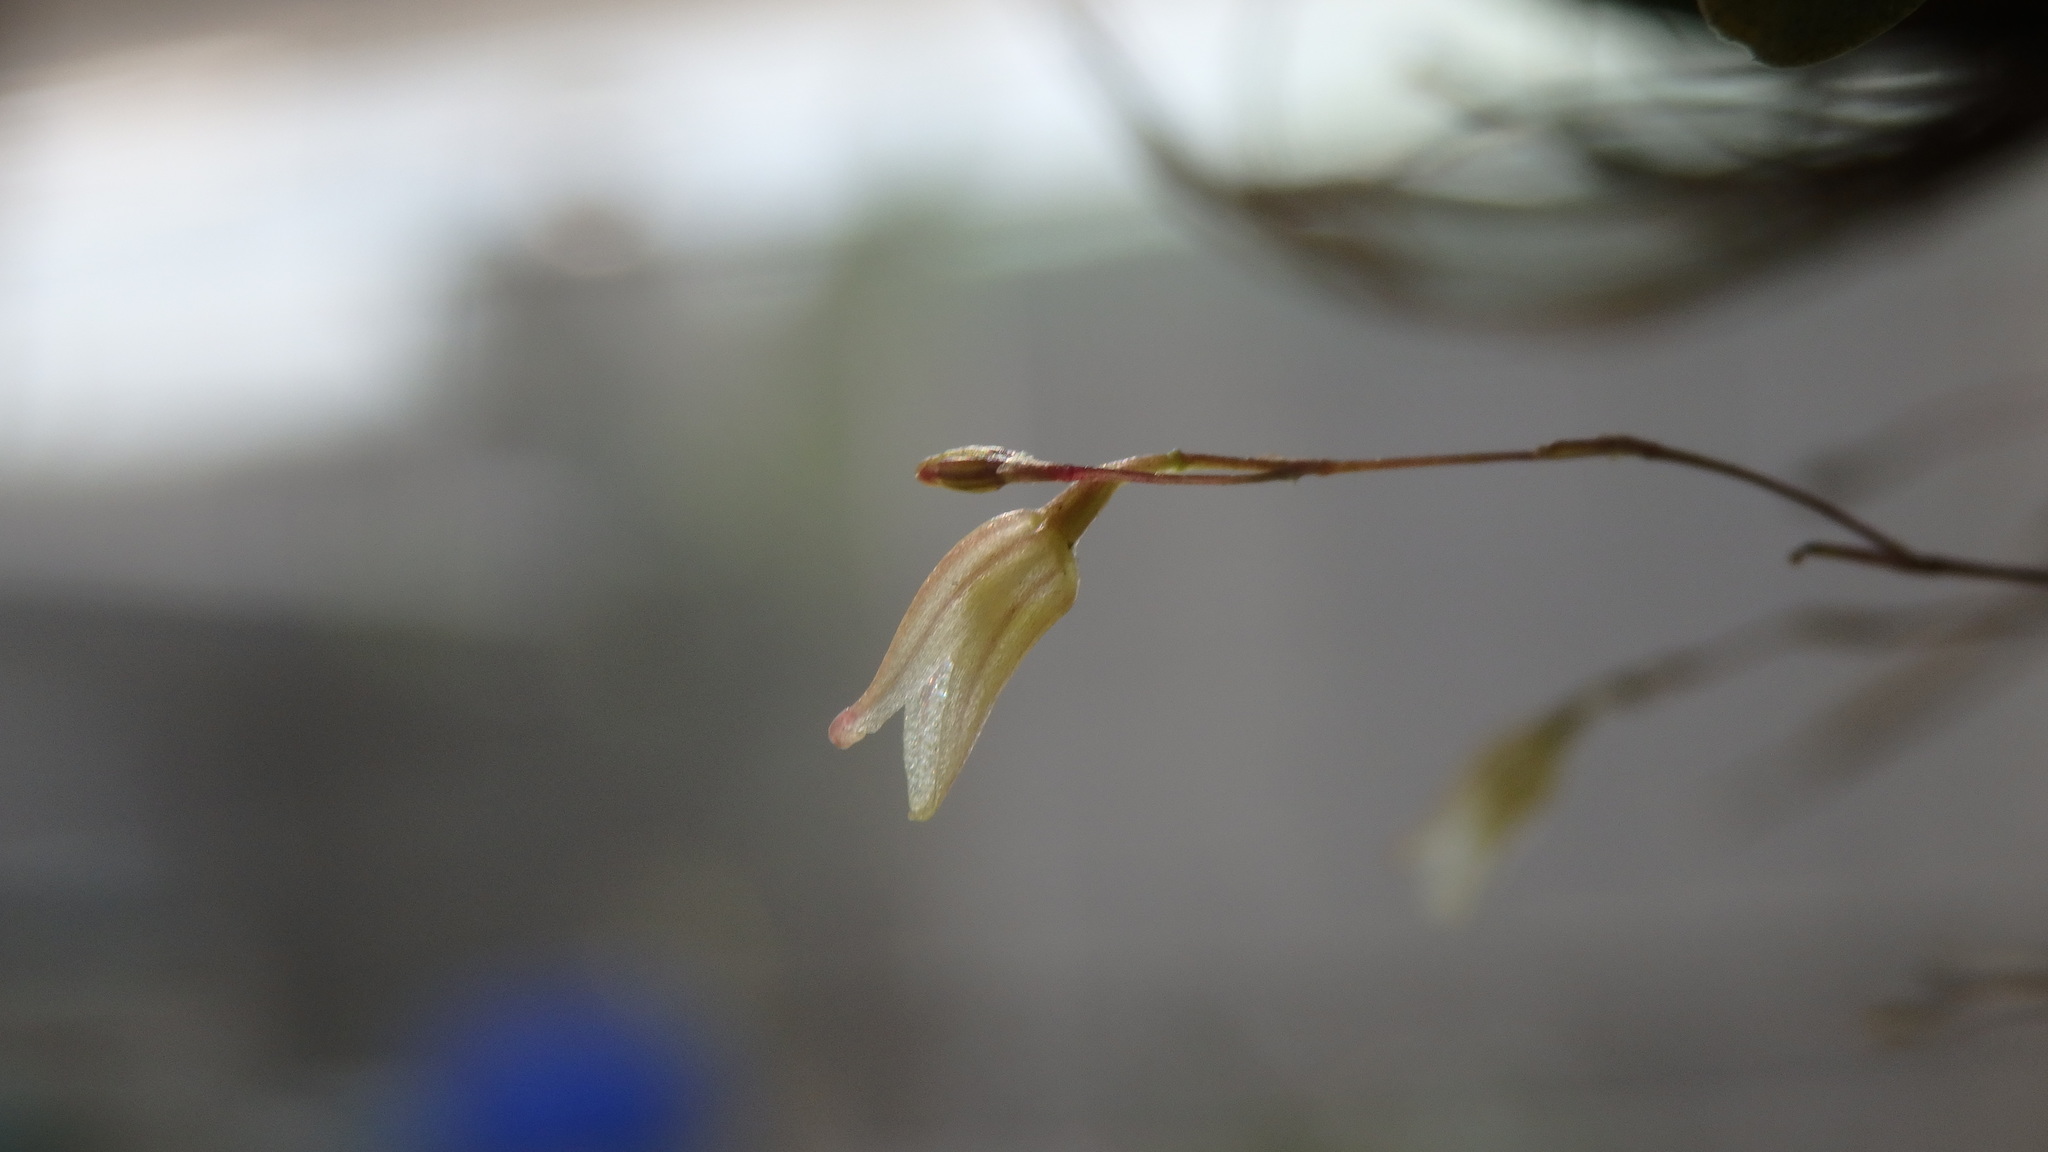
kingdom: Plantae
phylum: Tracheophyta
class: Liliopsida
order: Asparagales
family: Orchidaceae
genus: Specklinia
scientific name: Specklinia digitale
